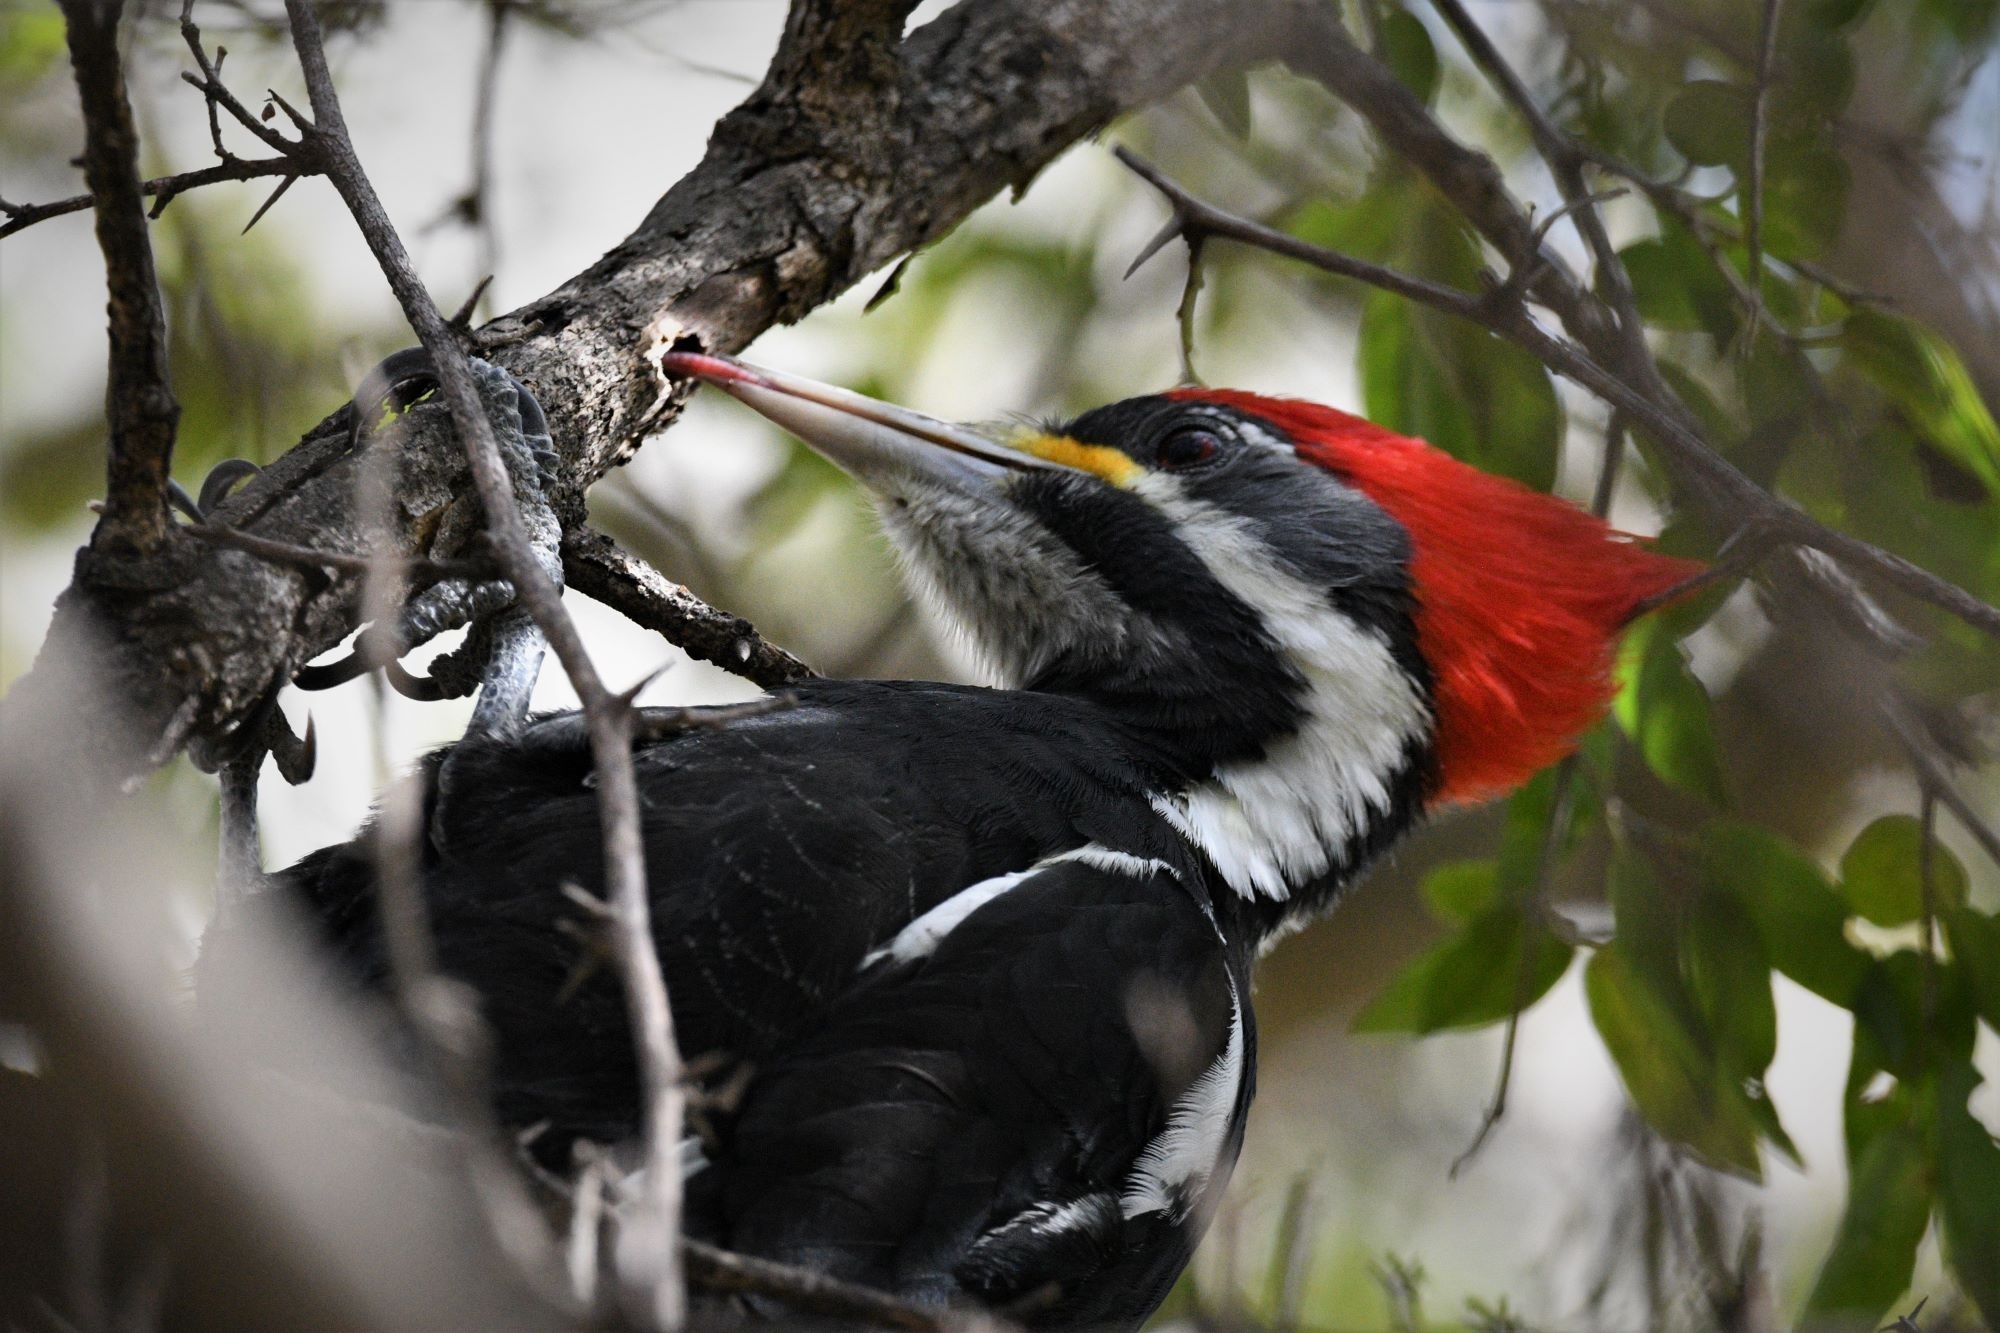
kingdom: Animalia
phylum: Chordata
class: Aves
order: Piciformes
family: Picidae
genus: Dryocopus
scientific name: Dryocopus schulzii
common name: Black-bodied woodpecker
